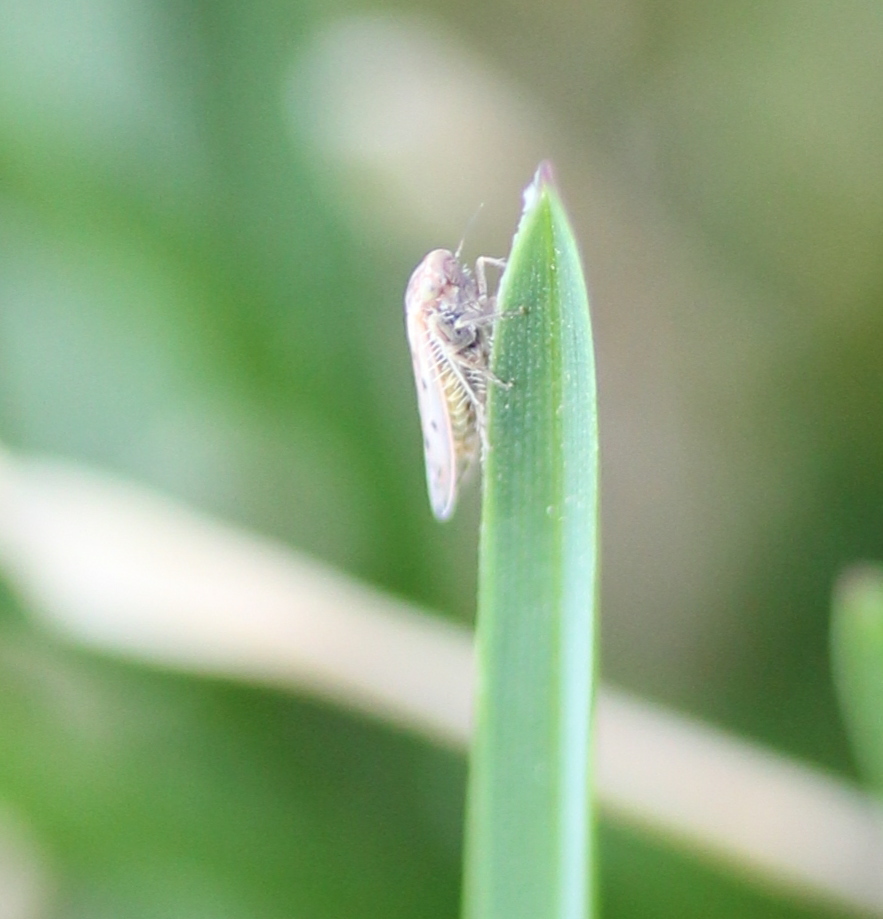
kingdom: Animalia
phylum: Arthropoda
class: Insecta
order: Hemiptera
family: Cicadellidae
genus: Balclutha
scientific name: Balclutha confluens
